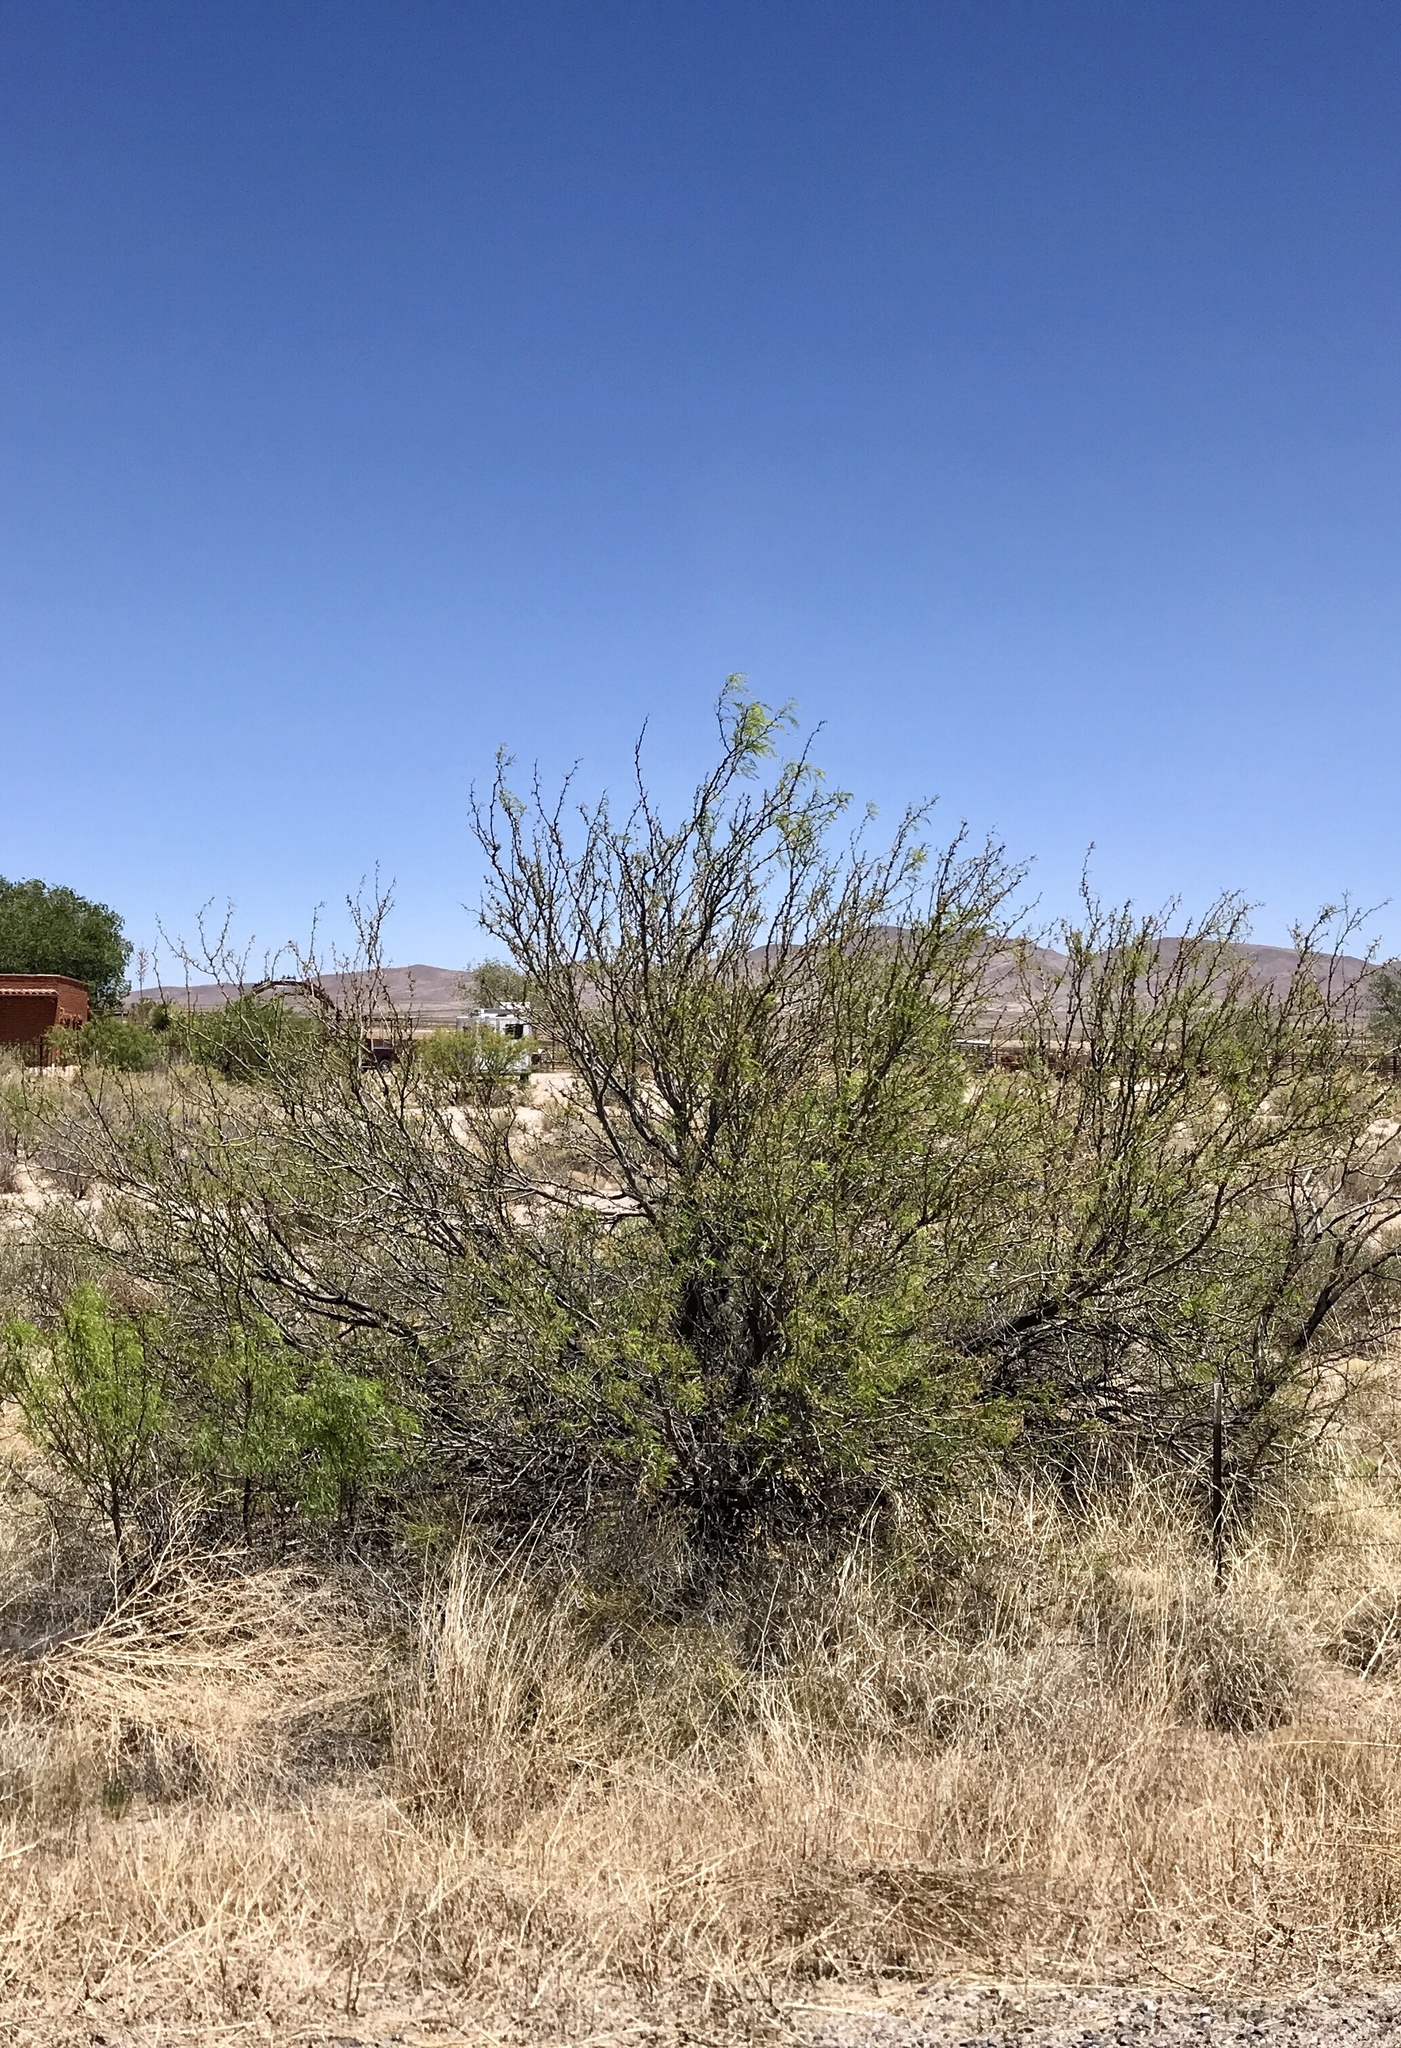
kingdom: Plantae
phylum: Tracheophyta
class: Magnoliopsida
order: Fabales
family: Fabaceae
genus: Prosopis
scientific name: Prosopis glandulosa
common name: Honey mesquite
